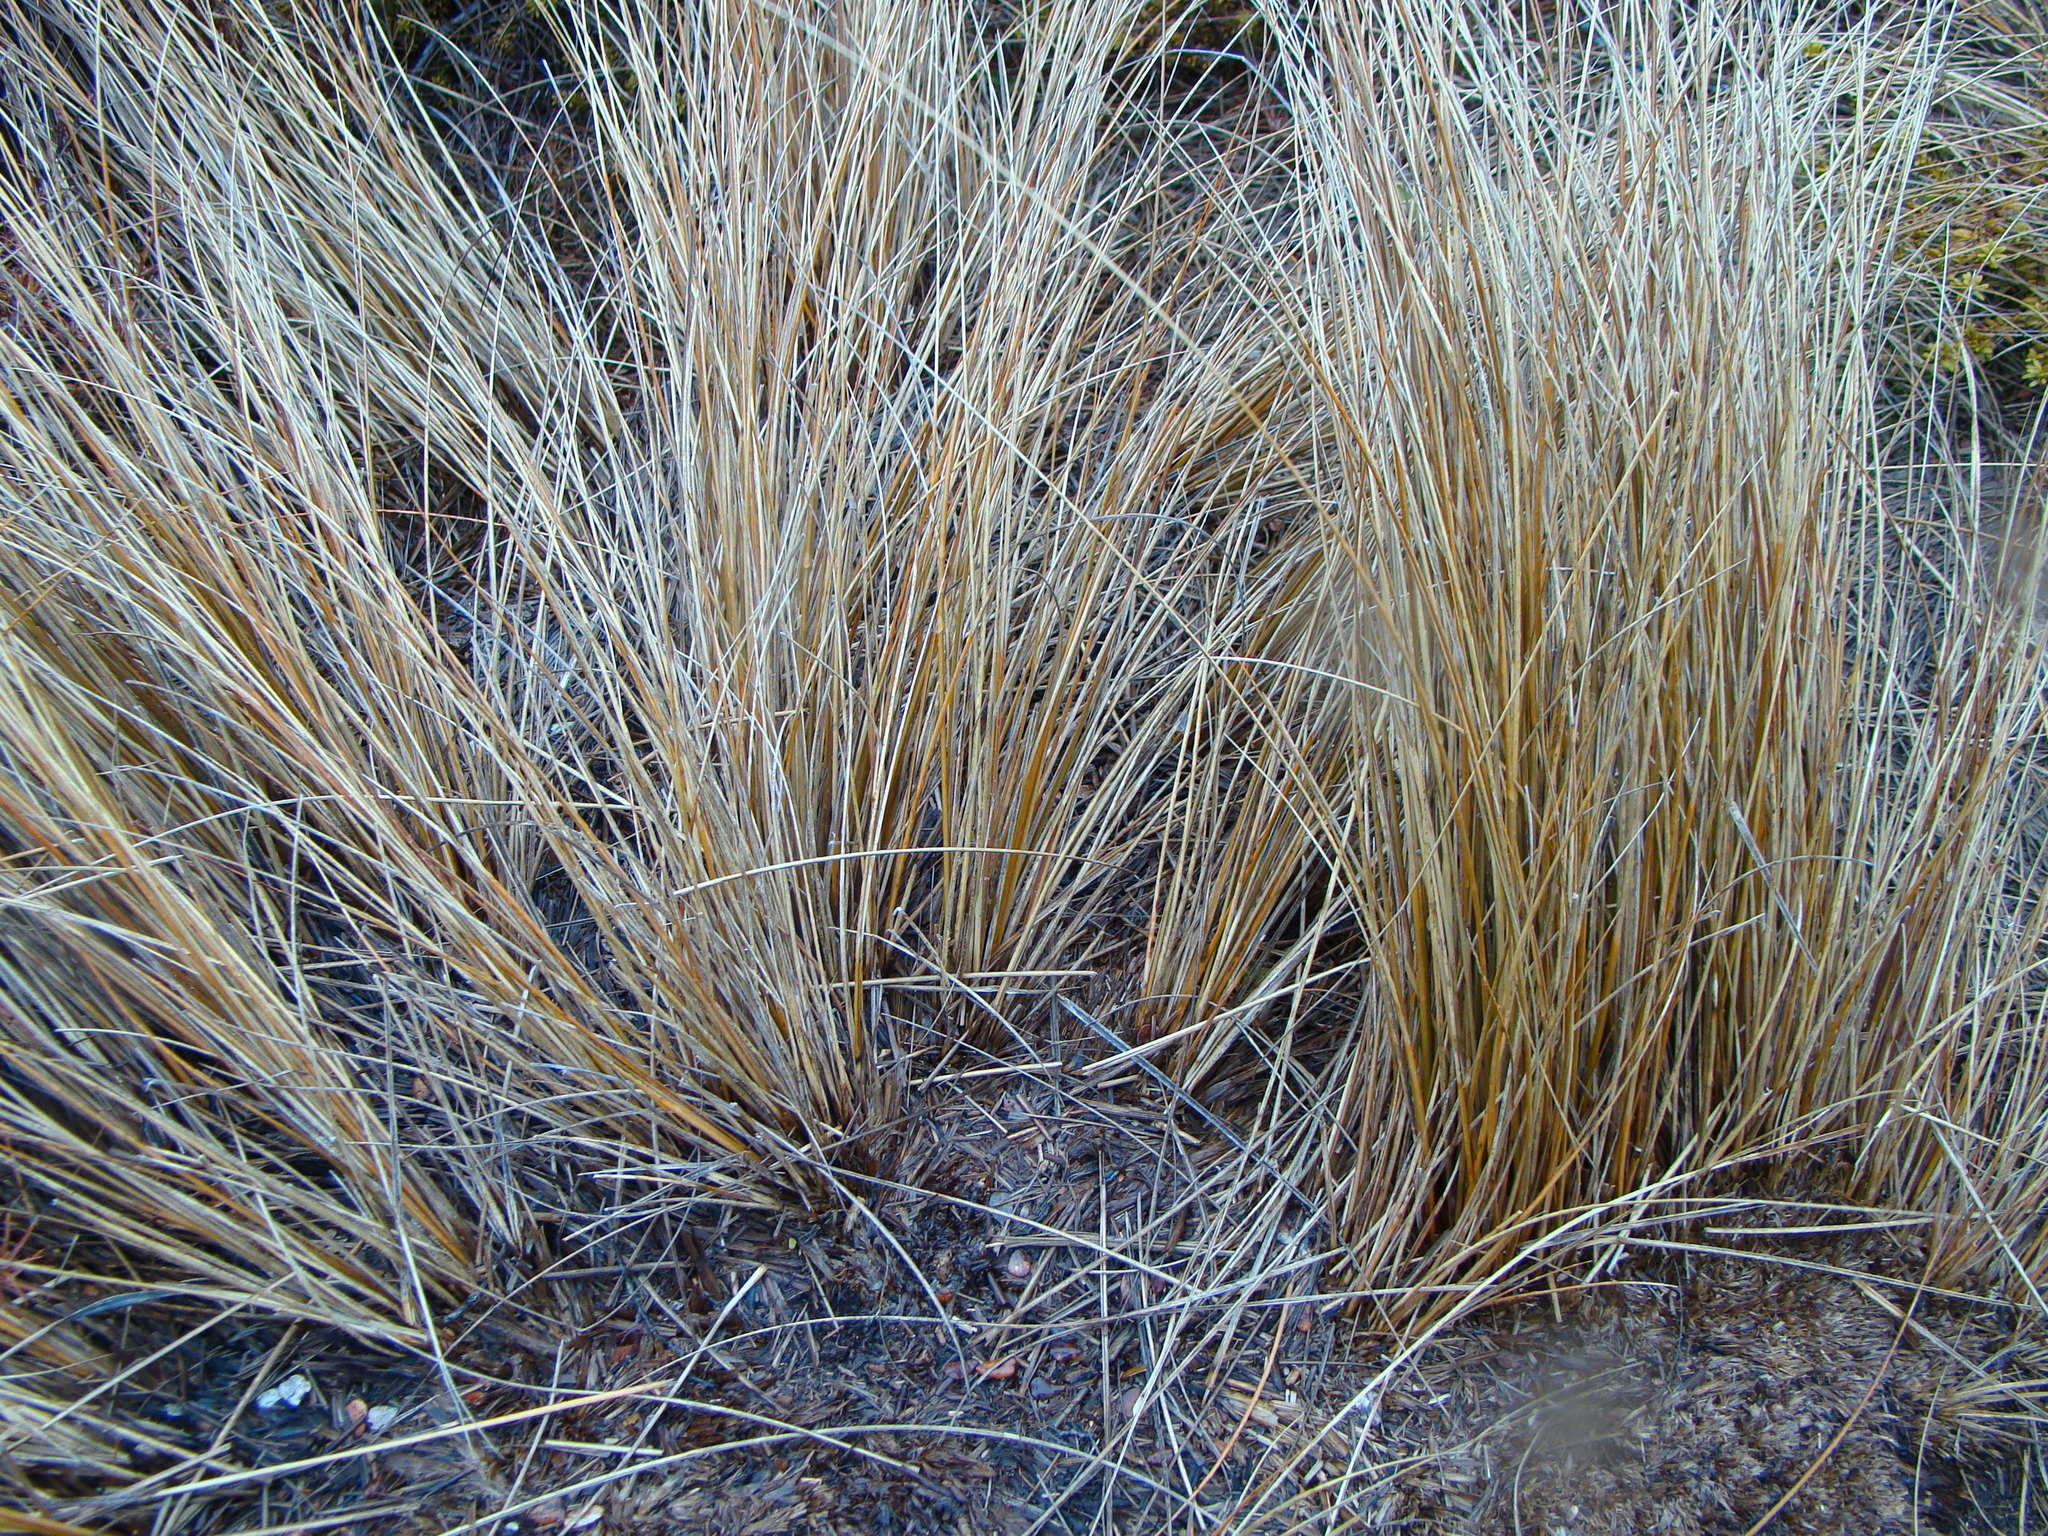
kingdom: Plantae
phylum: Tracheophyta
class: Liliopsida
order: Poales
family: Poaceae
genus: Chionochloa
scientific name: Chionochloa rubra
